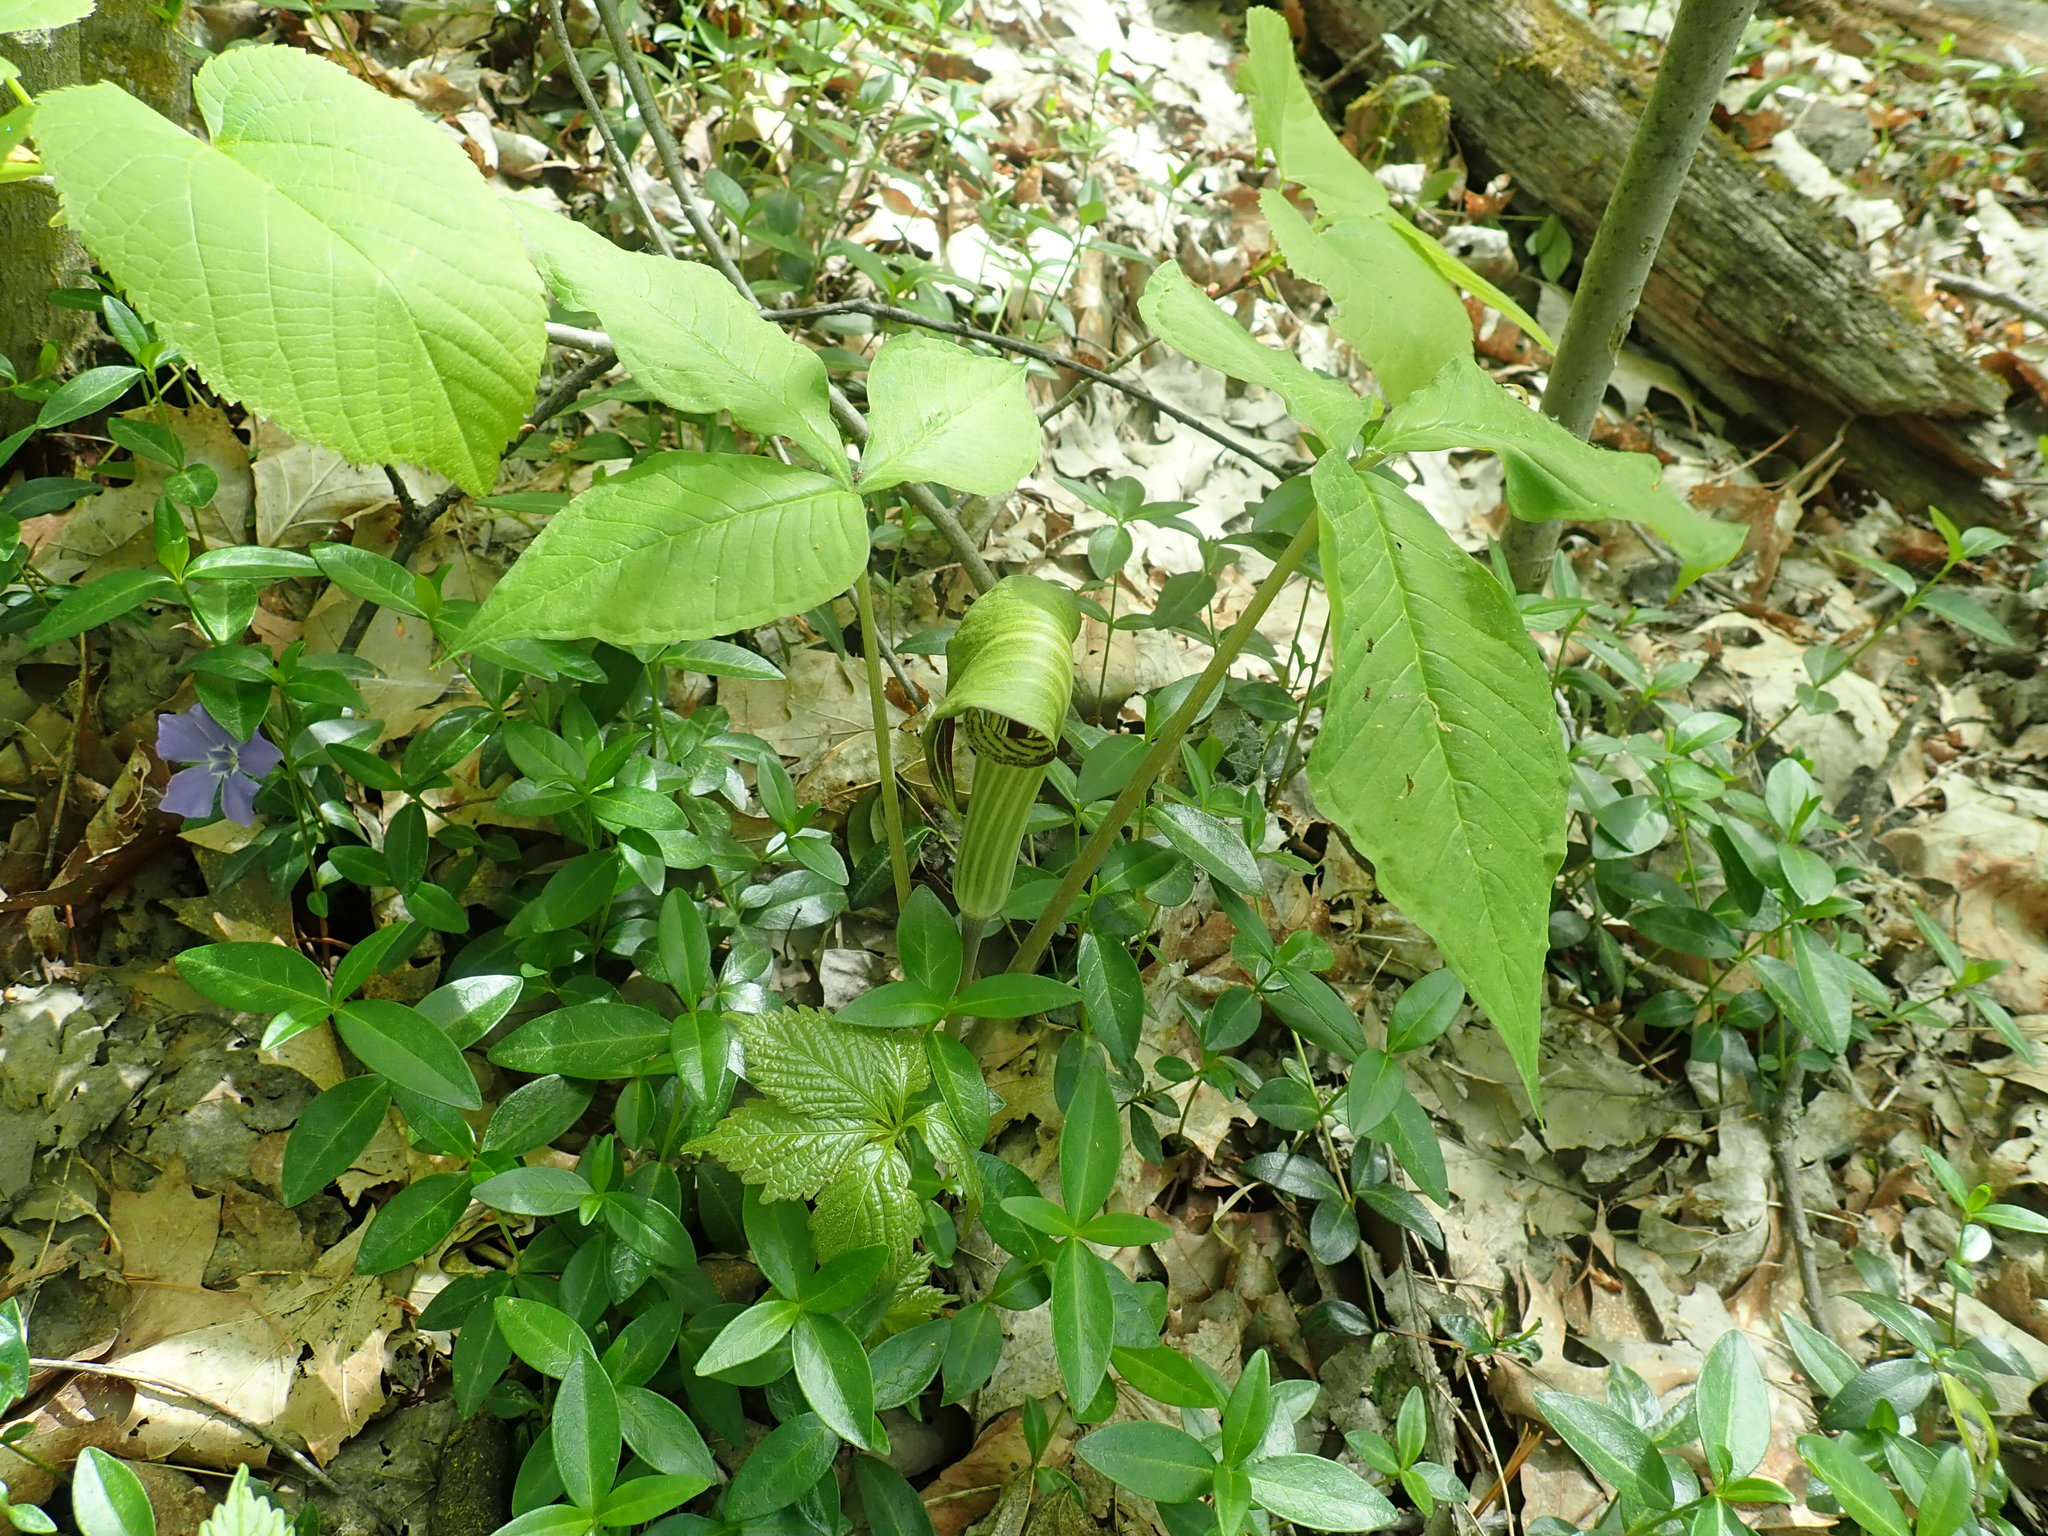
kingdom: Plantae
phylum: Tracheophyta
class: Liliopsida
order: Alismatales
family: Araceae
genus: Arisaema
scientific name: Arisaema triphyllum
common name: Jack-in-the-pulpit
